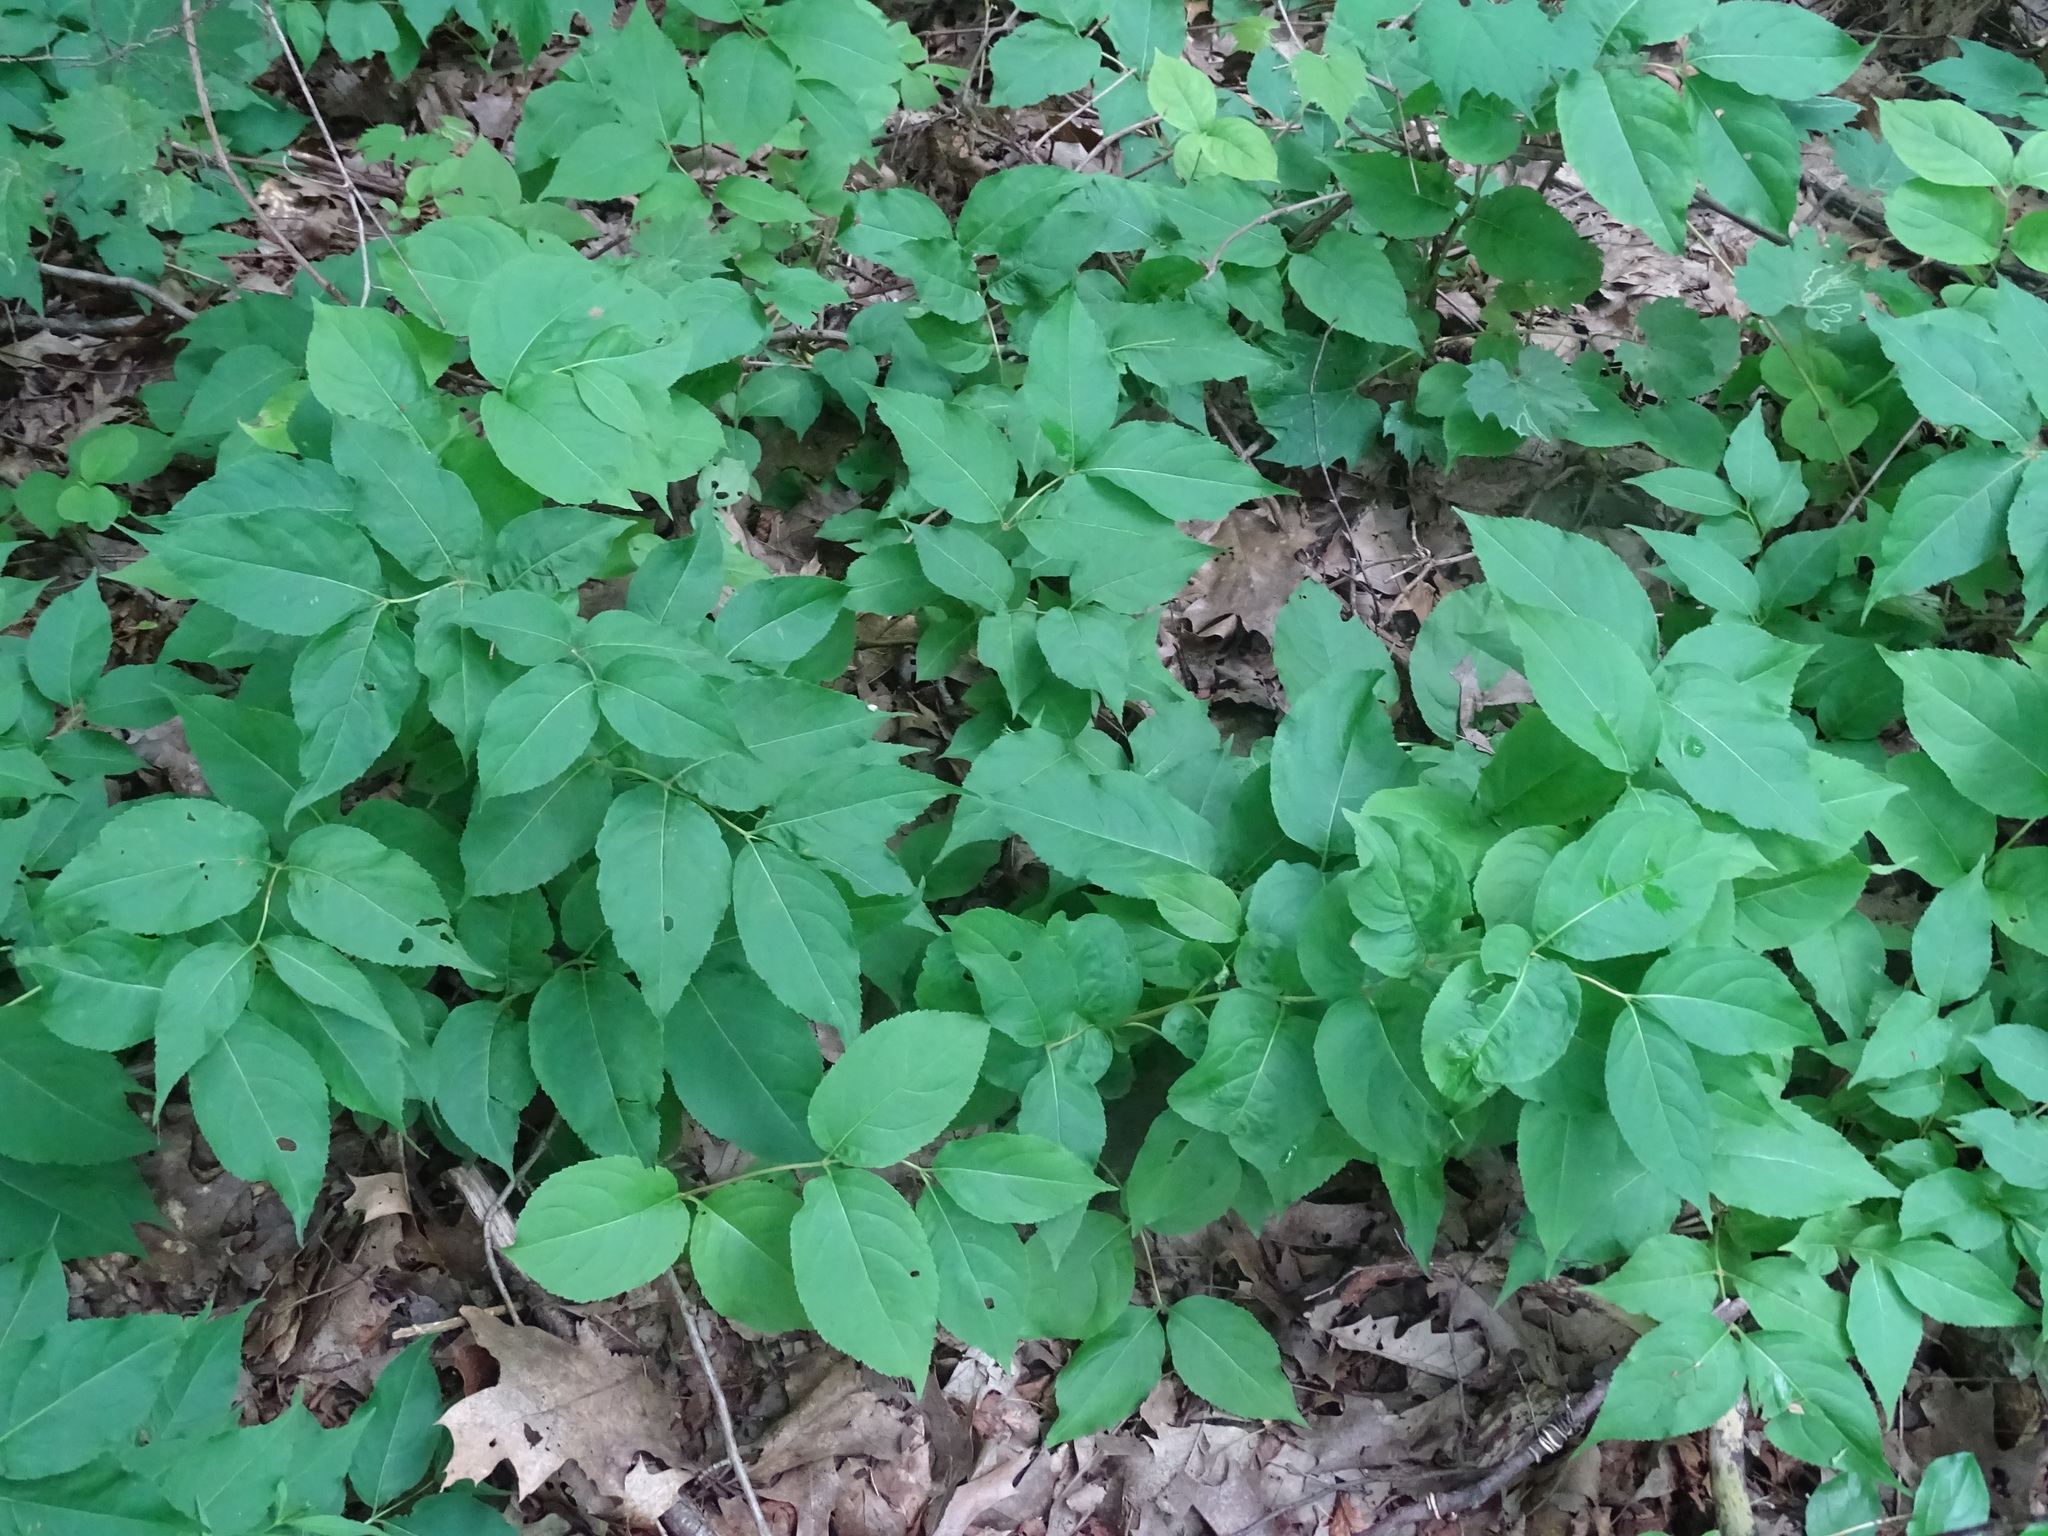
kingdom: Plantae
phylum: Tracheophyta
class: Magnoliopsida
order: Dipsacales
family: Caprifoliaceae
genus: Diervilla
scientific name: Diervilla lonicera
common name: Bush-honeysuckle
